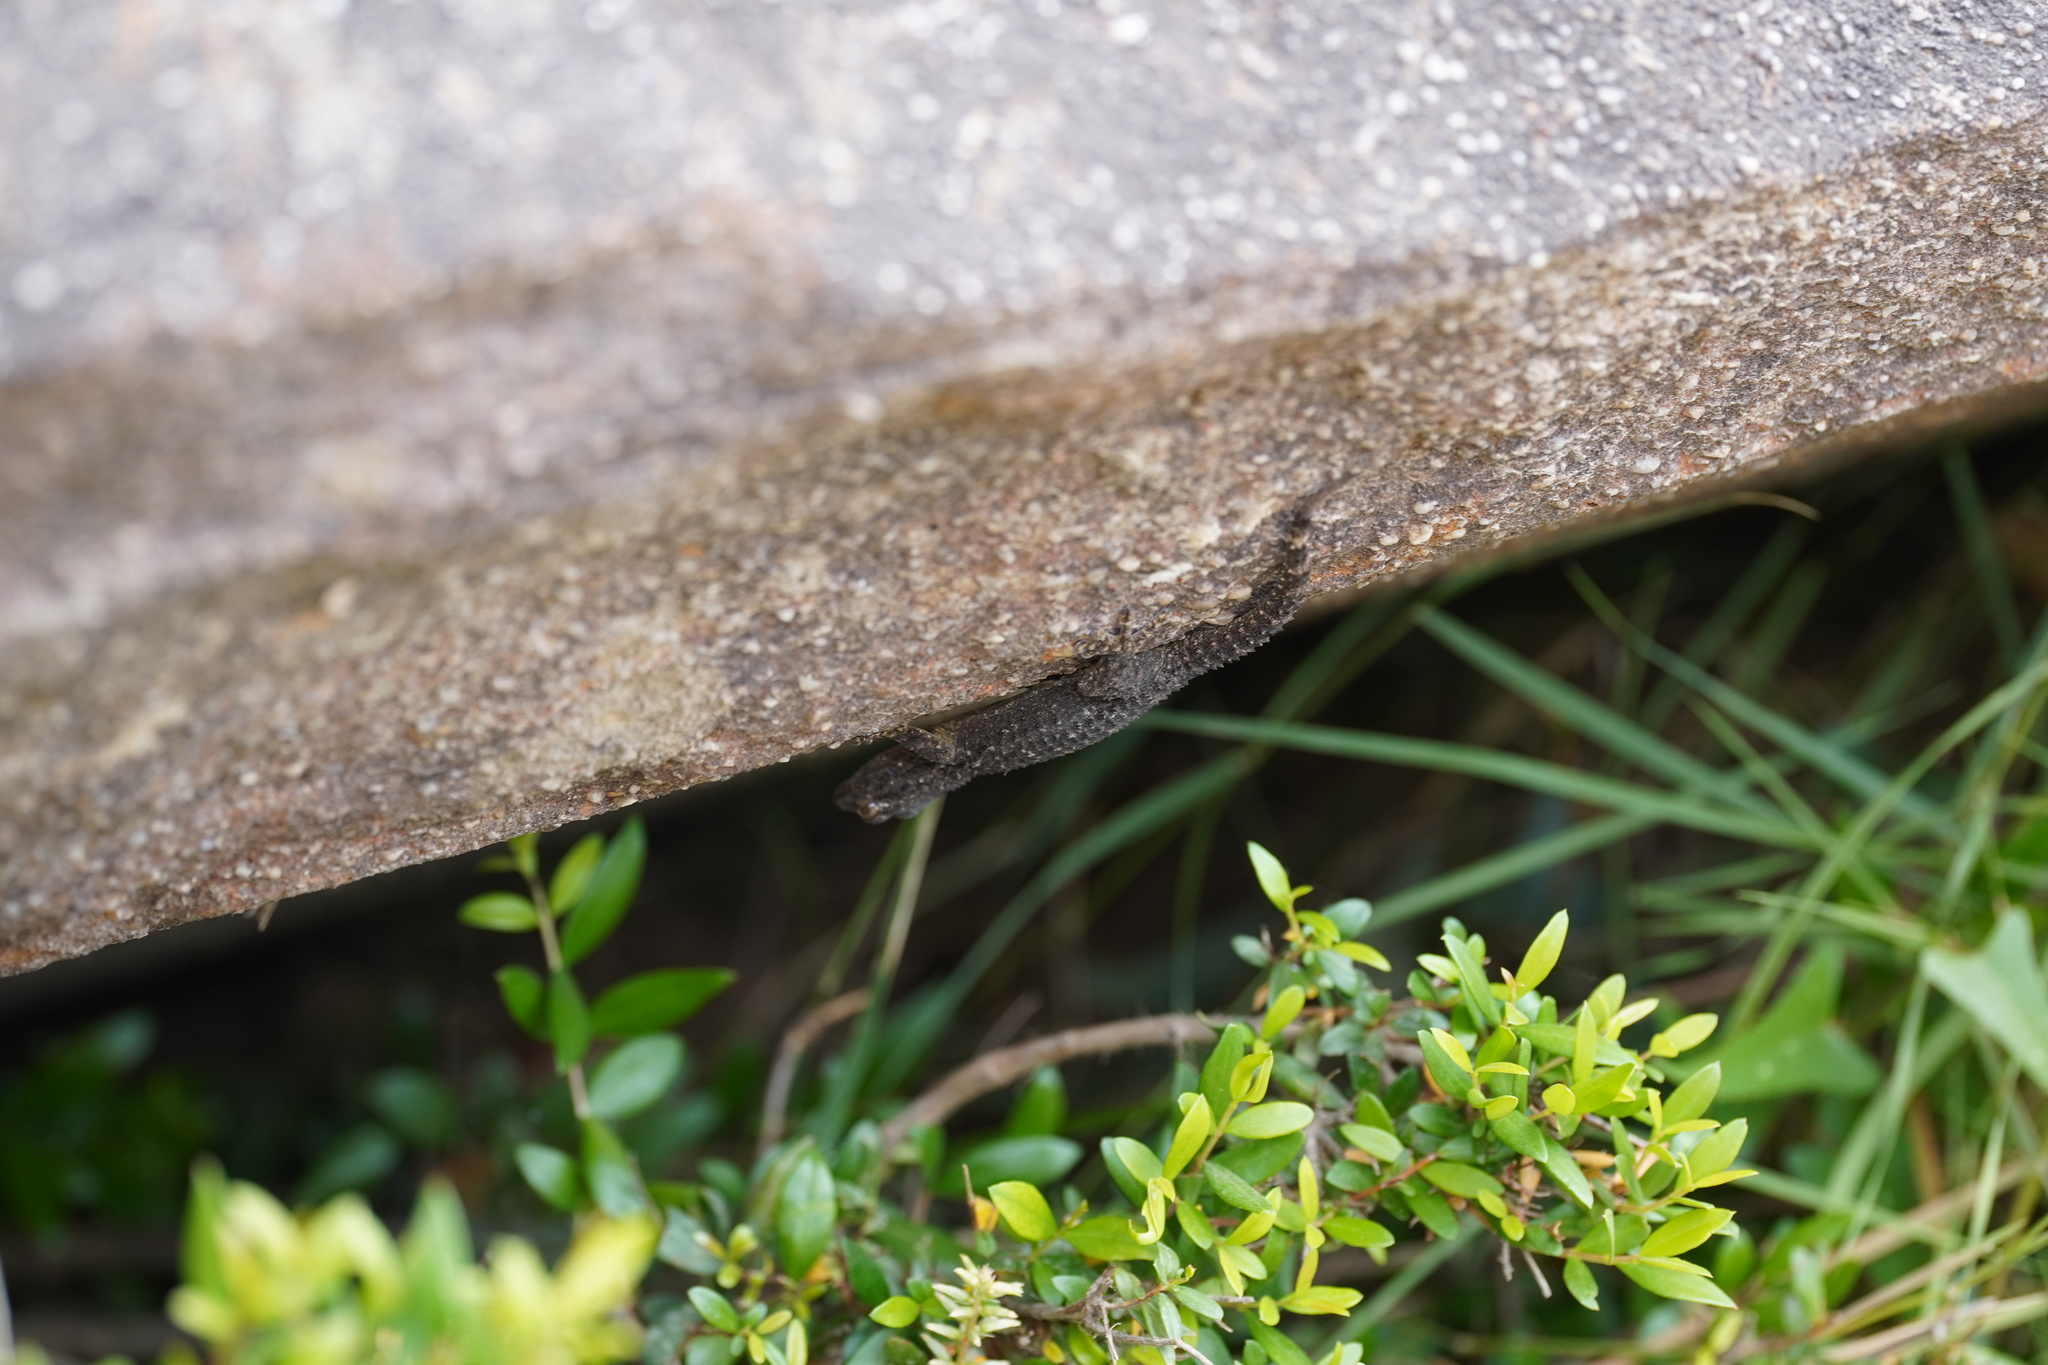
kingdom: Animalia
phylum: Chordata
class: Squamata
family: Phyllodactylidae
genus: Tarentola
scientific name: Tarentola mauritanica
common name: Moorish gecko
